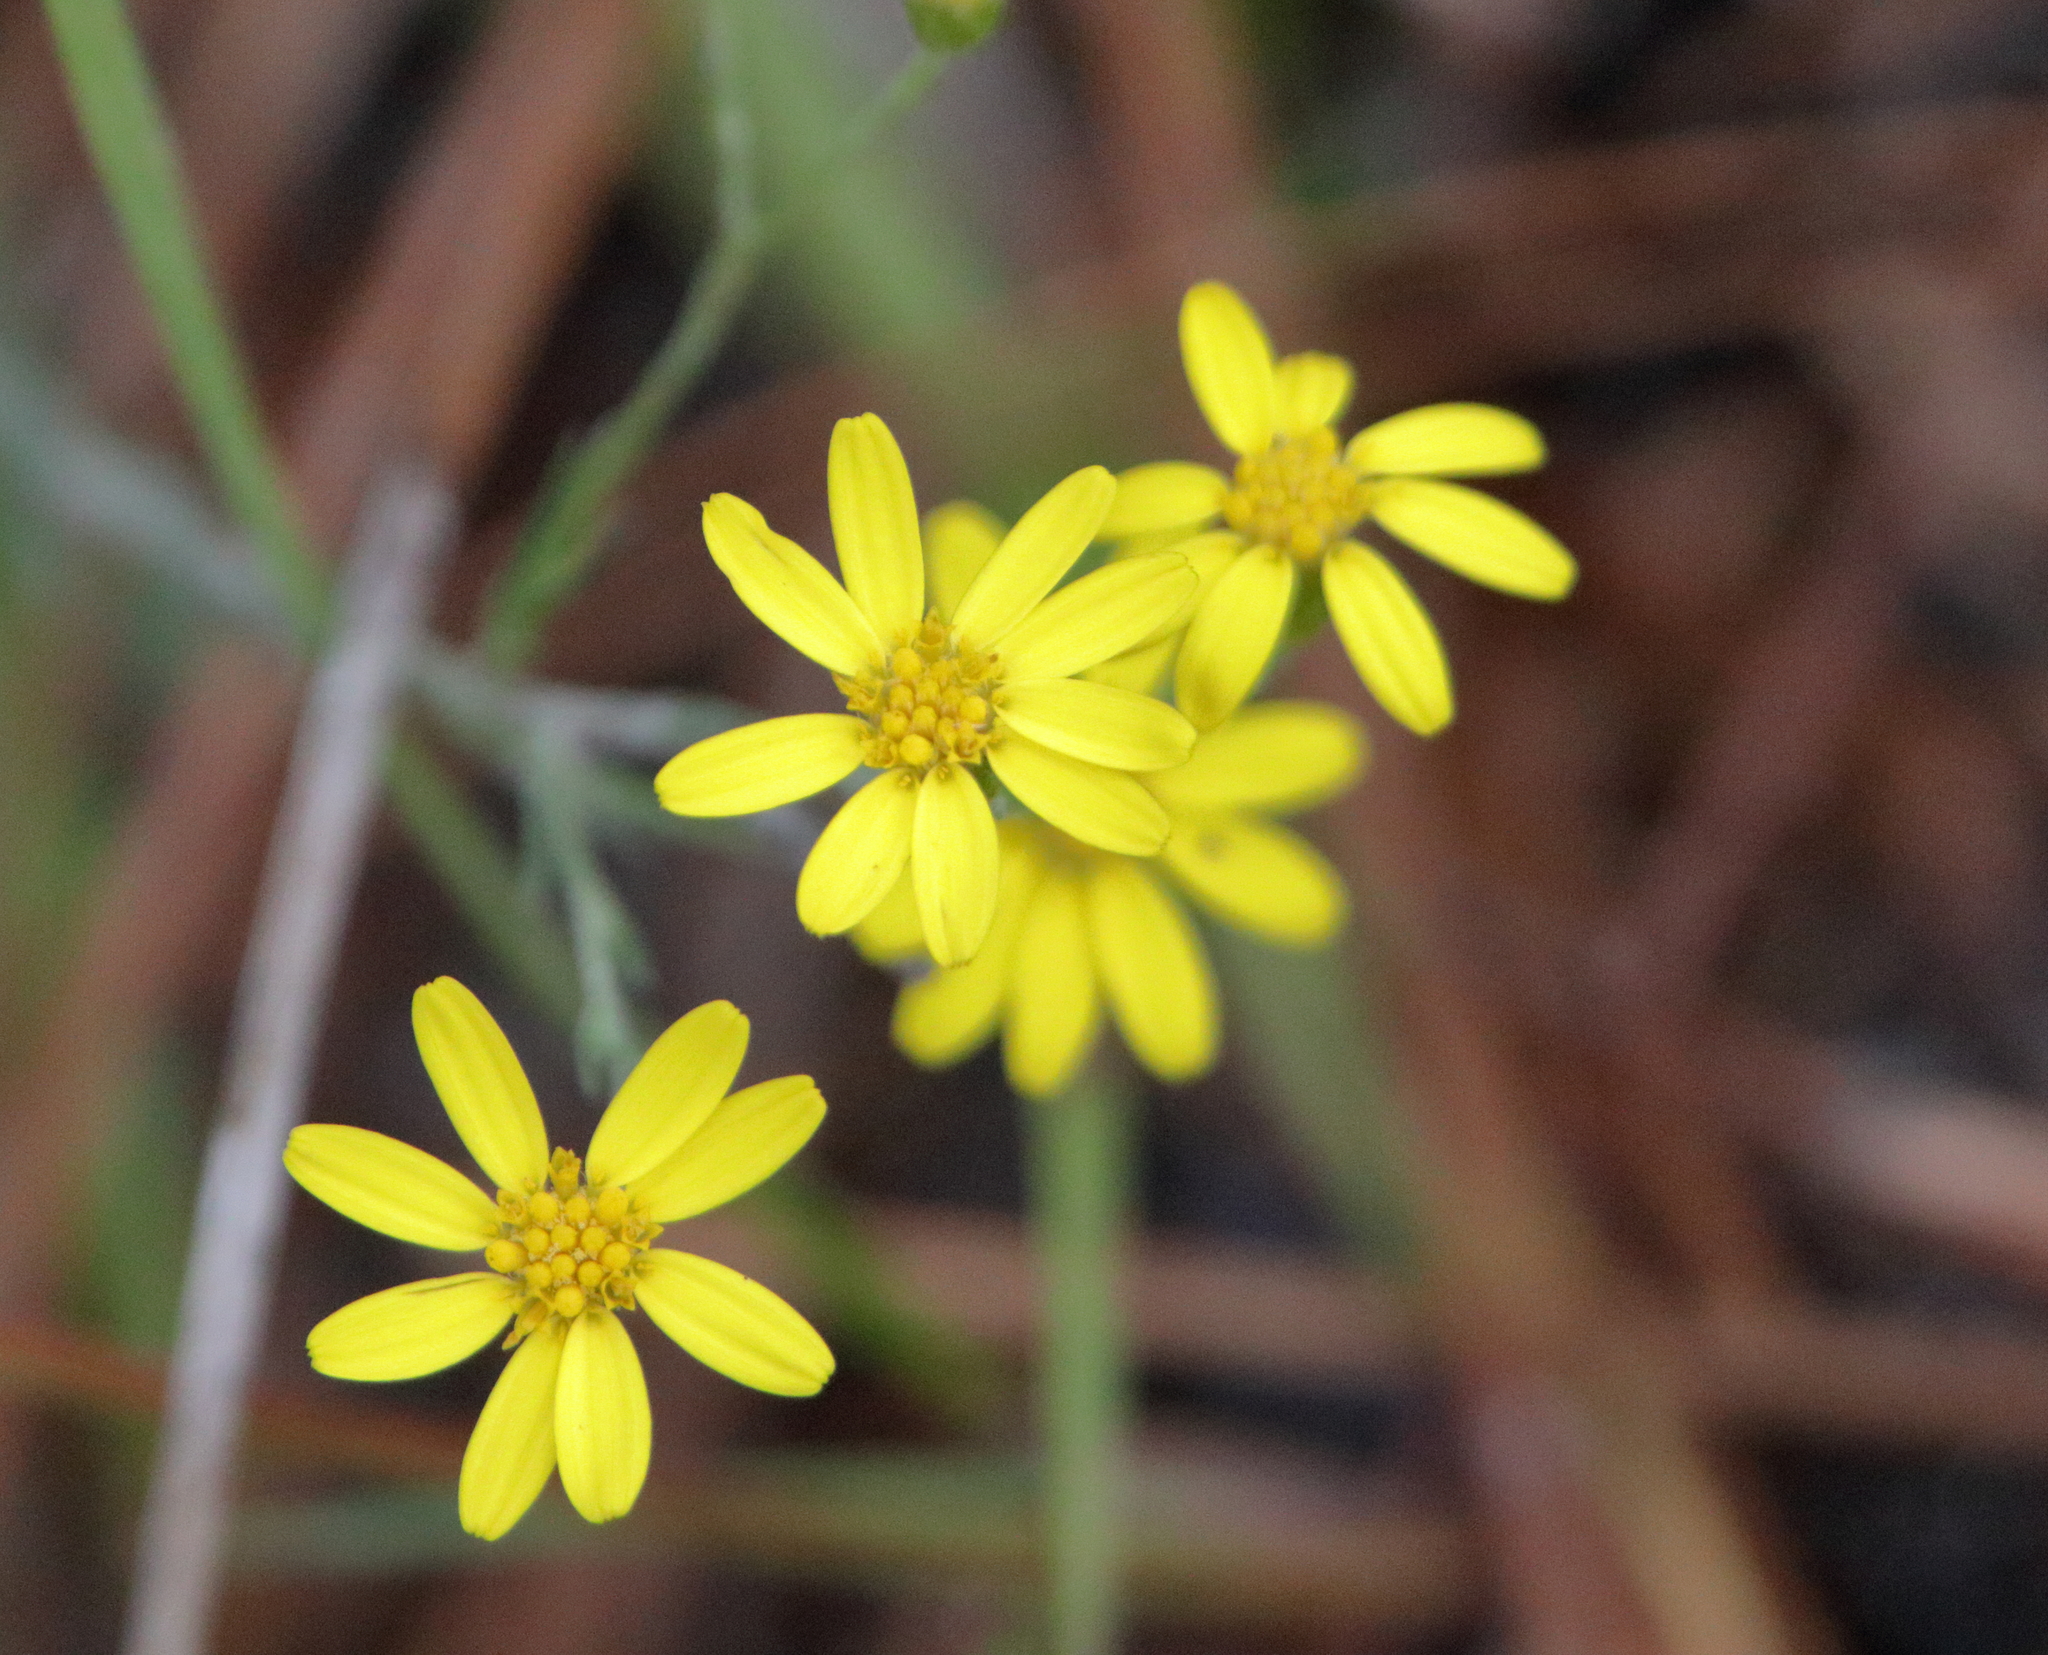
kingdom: Plantae
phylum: Tracheophyta
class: Magnoliopsida
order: Asterales
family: Asteraceae
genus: Pityopsis
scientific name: Pityopsis graminifolia
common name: Grass-leaf golden-aster
